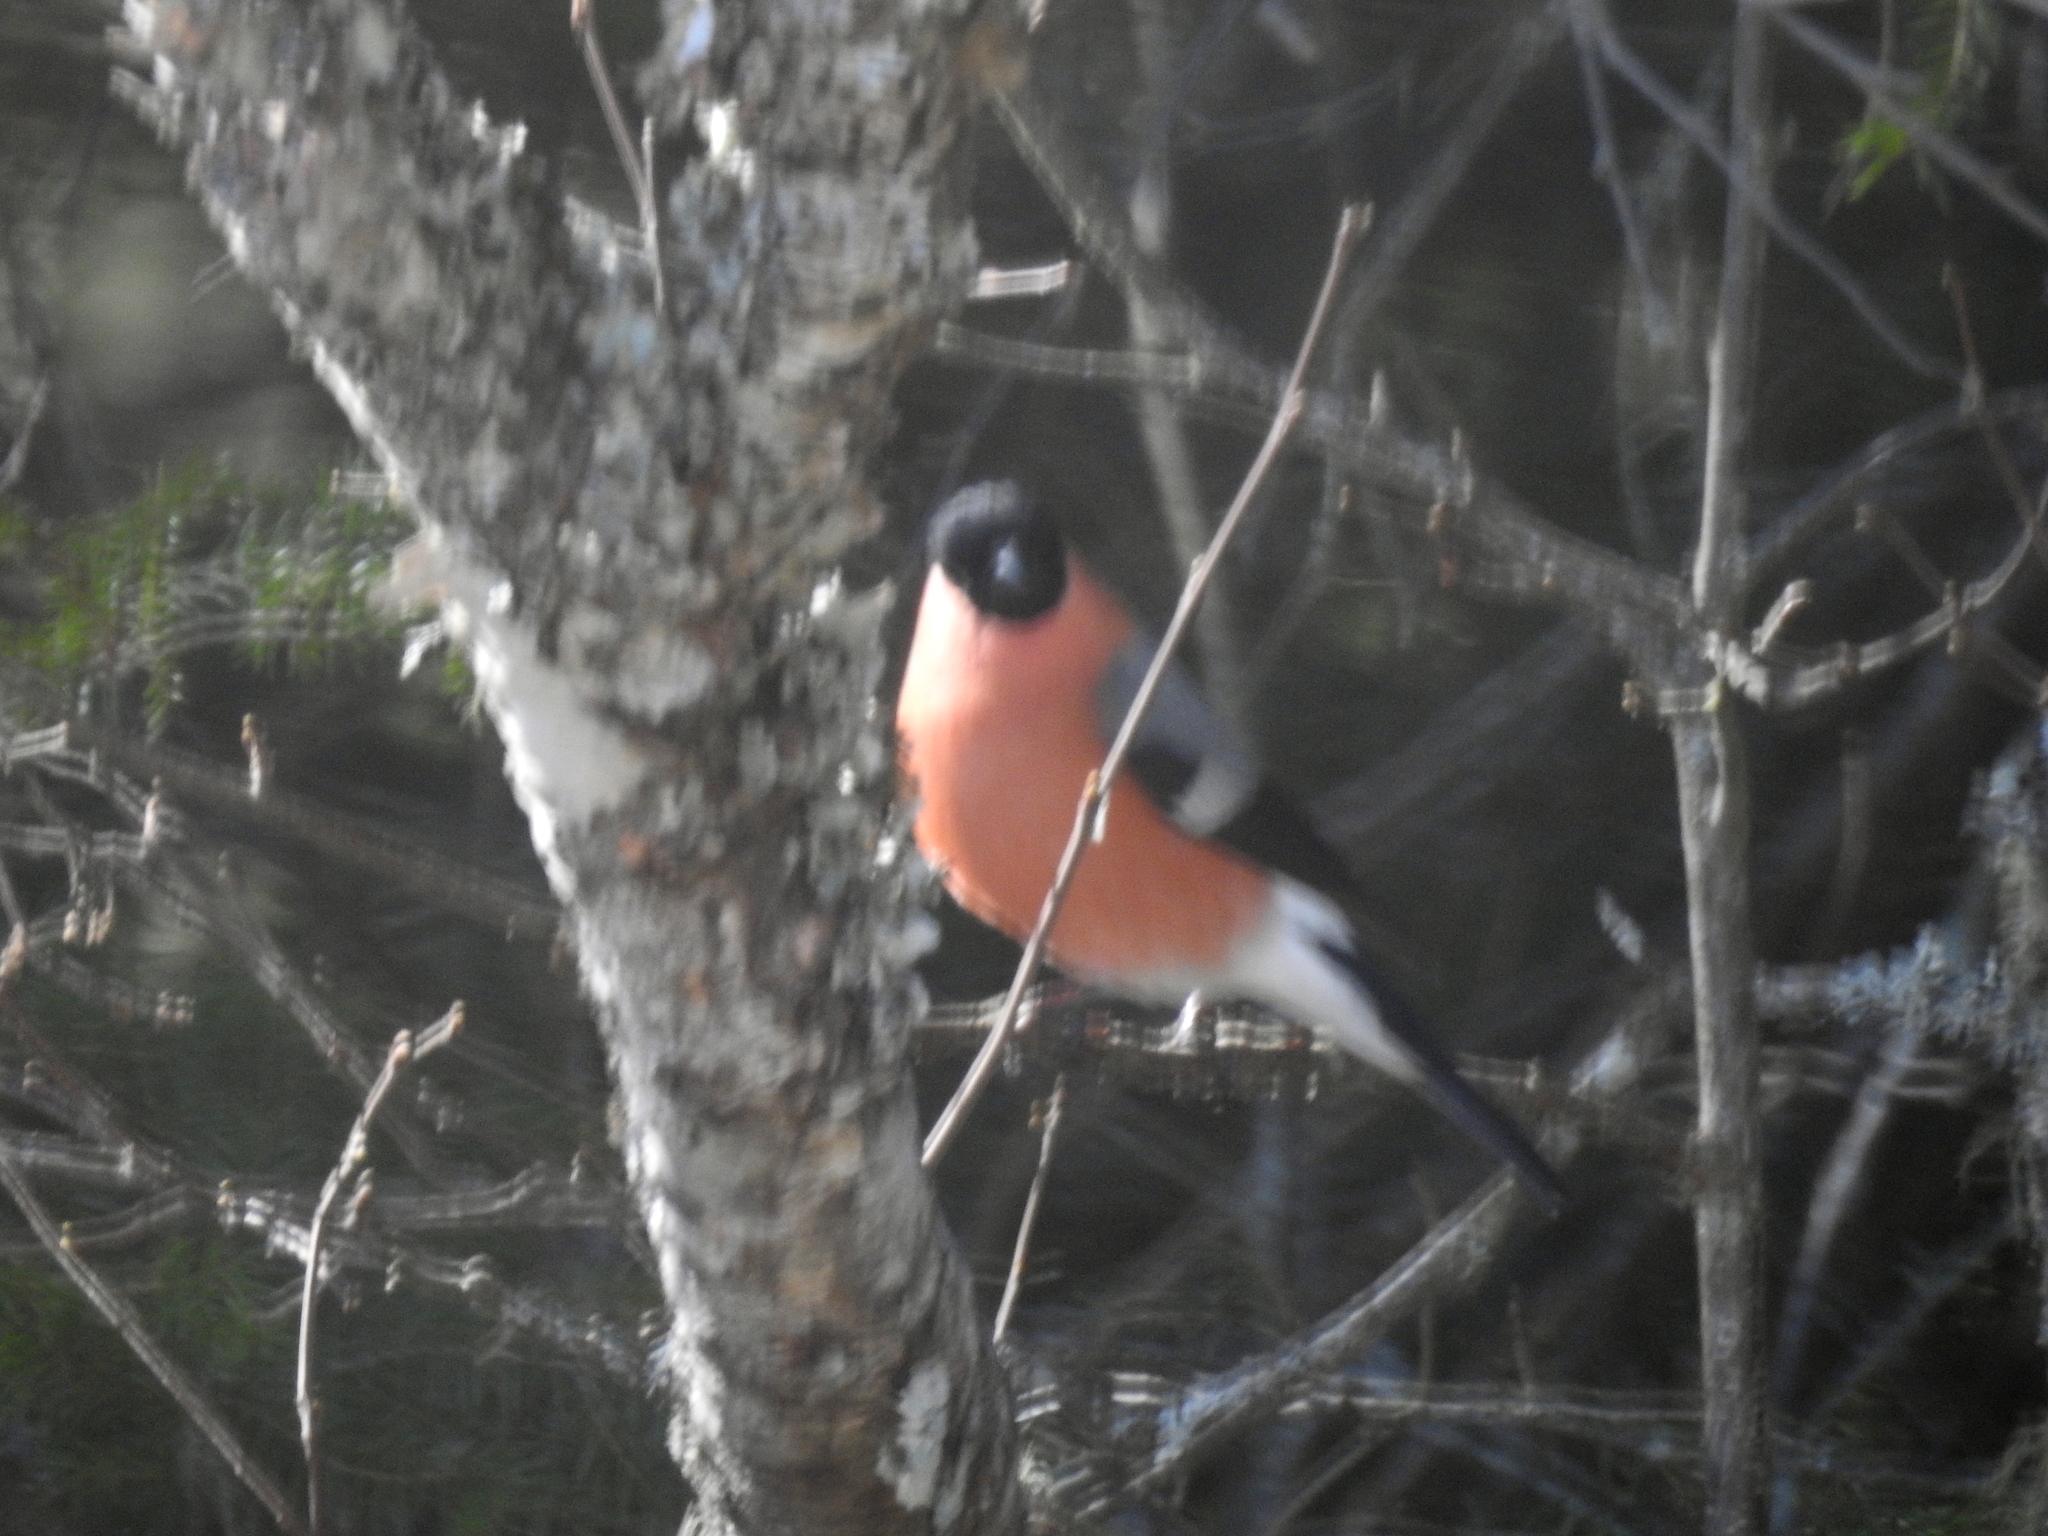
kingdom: Animalia
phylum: Chordata
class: Aves
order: Passeriformes
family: Fringillidae
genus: Pyrrhula
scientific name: Pyrrhula pyrrhula
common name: Eurasian bullfinch
